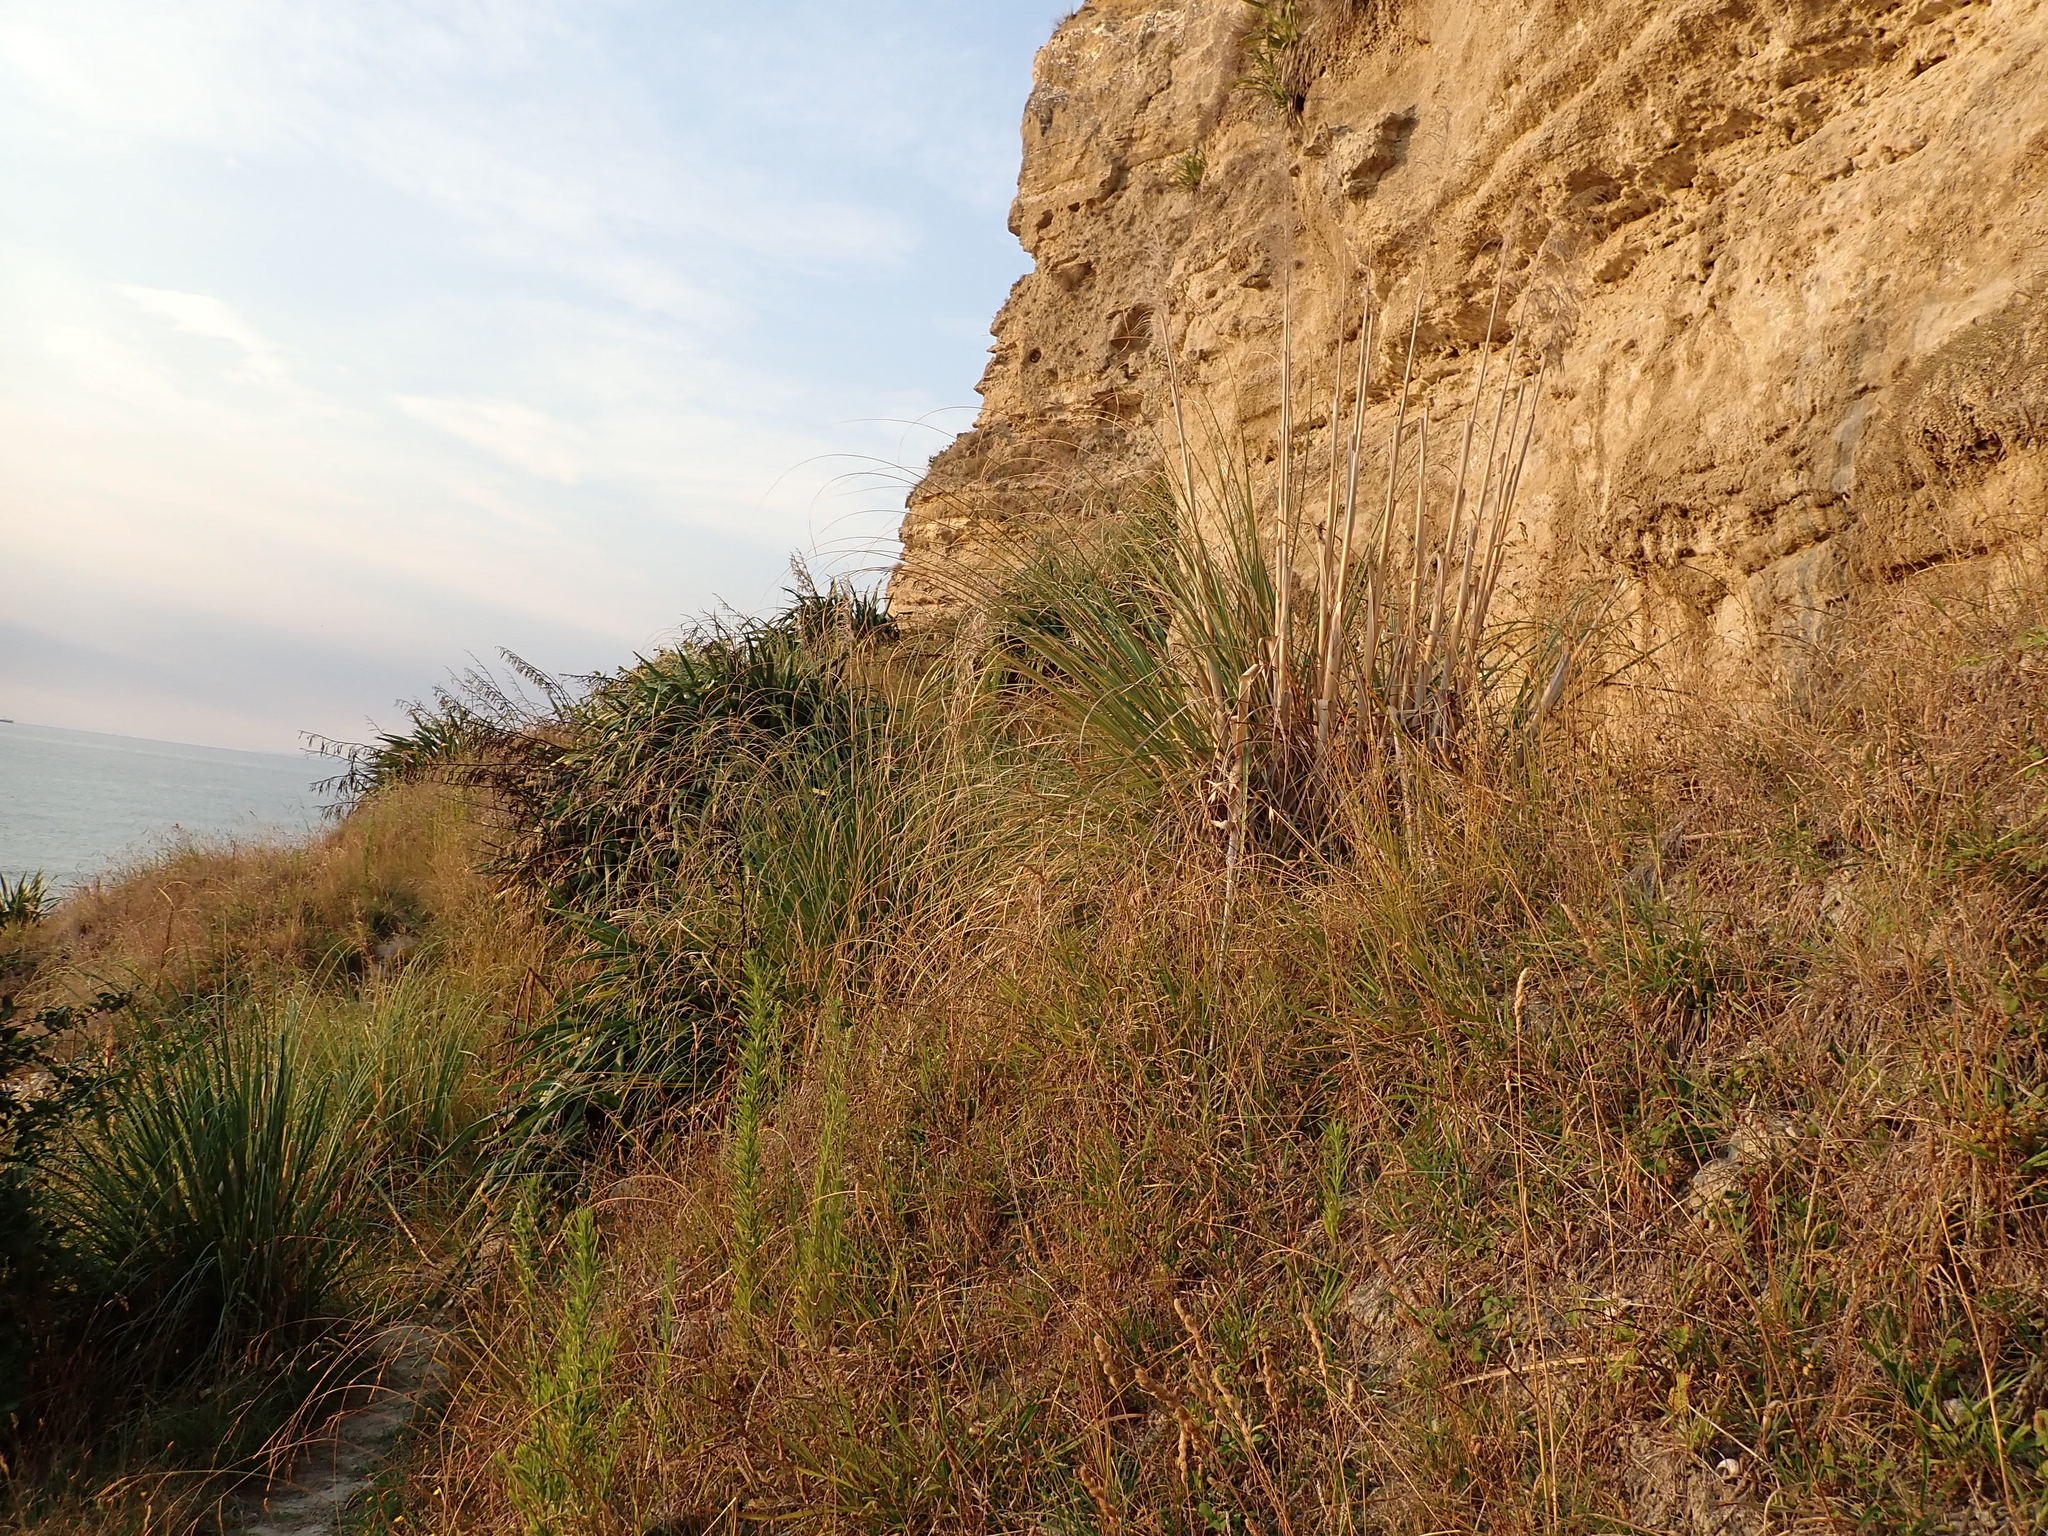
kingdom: Plantae
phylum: Tracheophyta
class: Liliopsida
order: Poales
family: Poaceae
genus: Cortaderia
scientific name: Cortaderia selloana
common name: Uruguayan pampas grass
